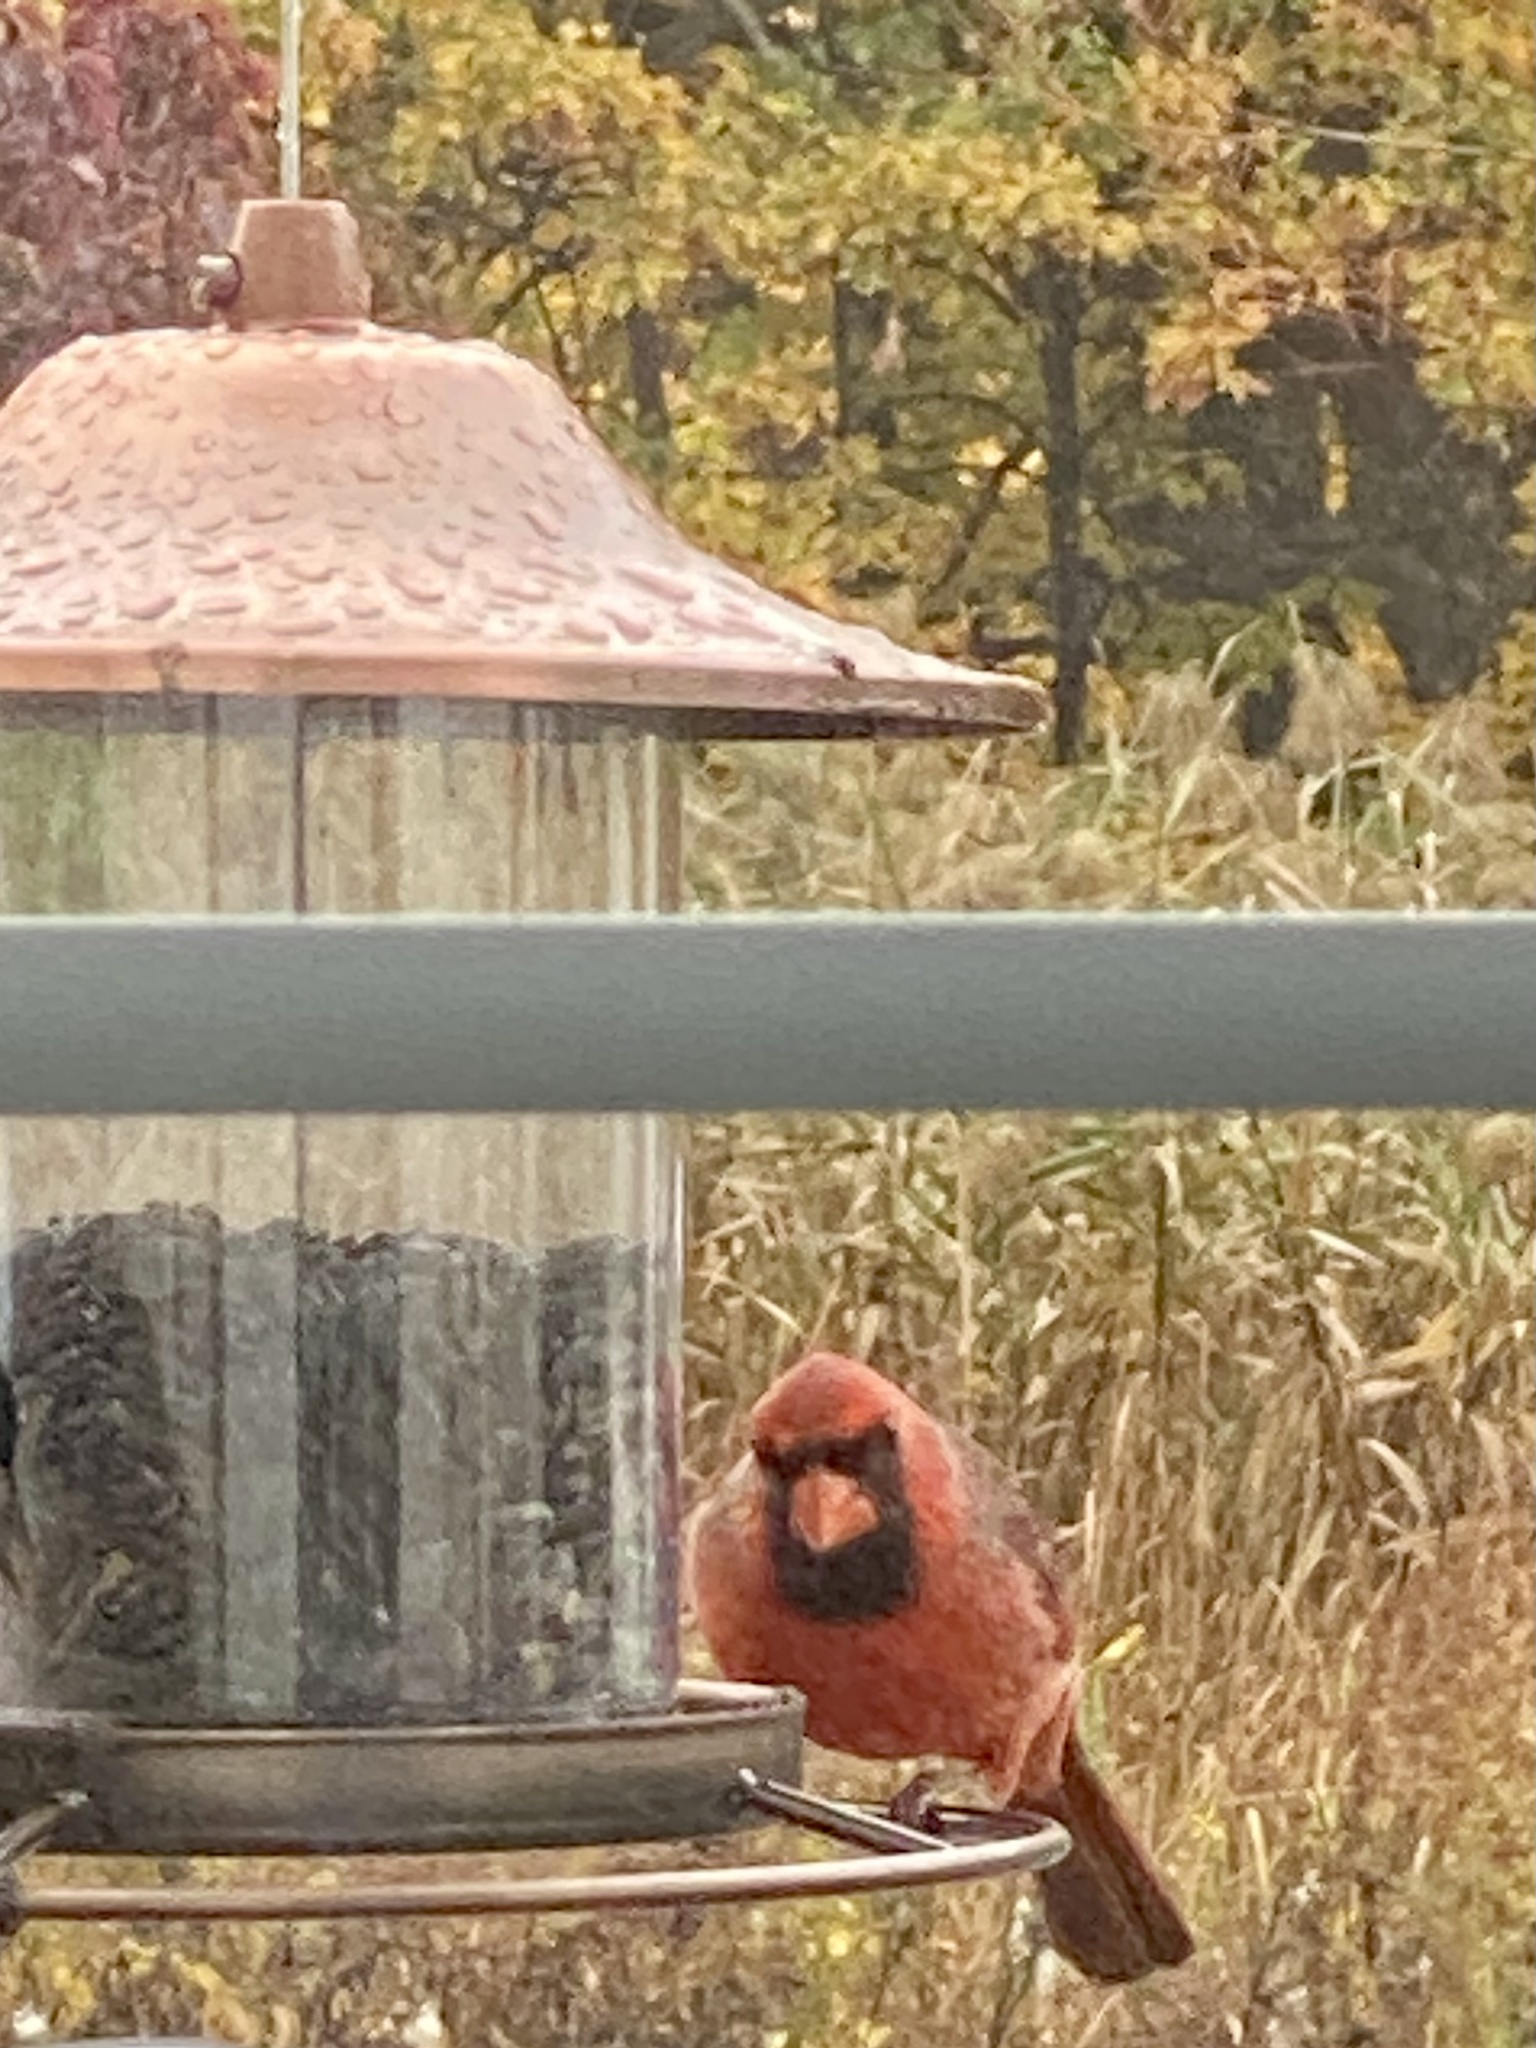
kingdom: Animalia
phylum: Chordata
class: Aves
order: Passeriformes
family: Cardinalidae
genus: Cardinalis
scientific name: Cardinalis cardinalis
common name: Northern cardinal
